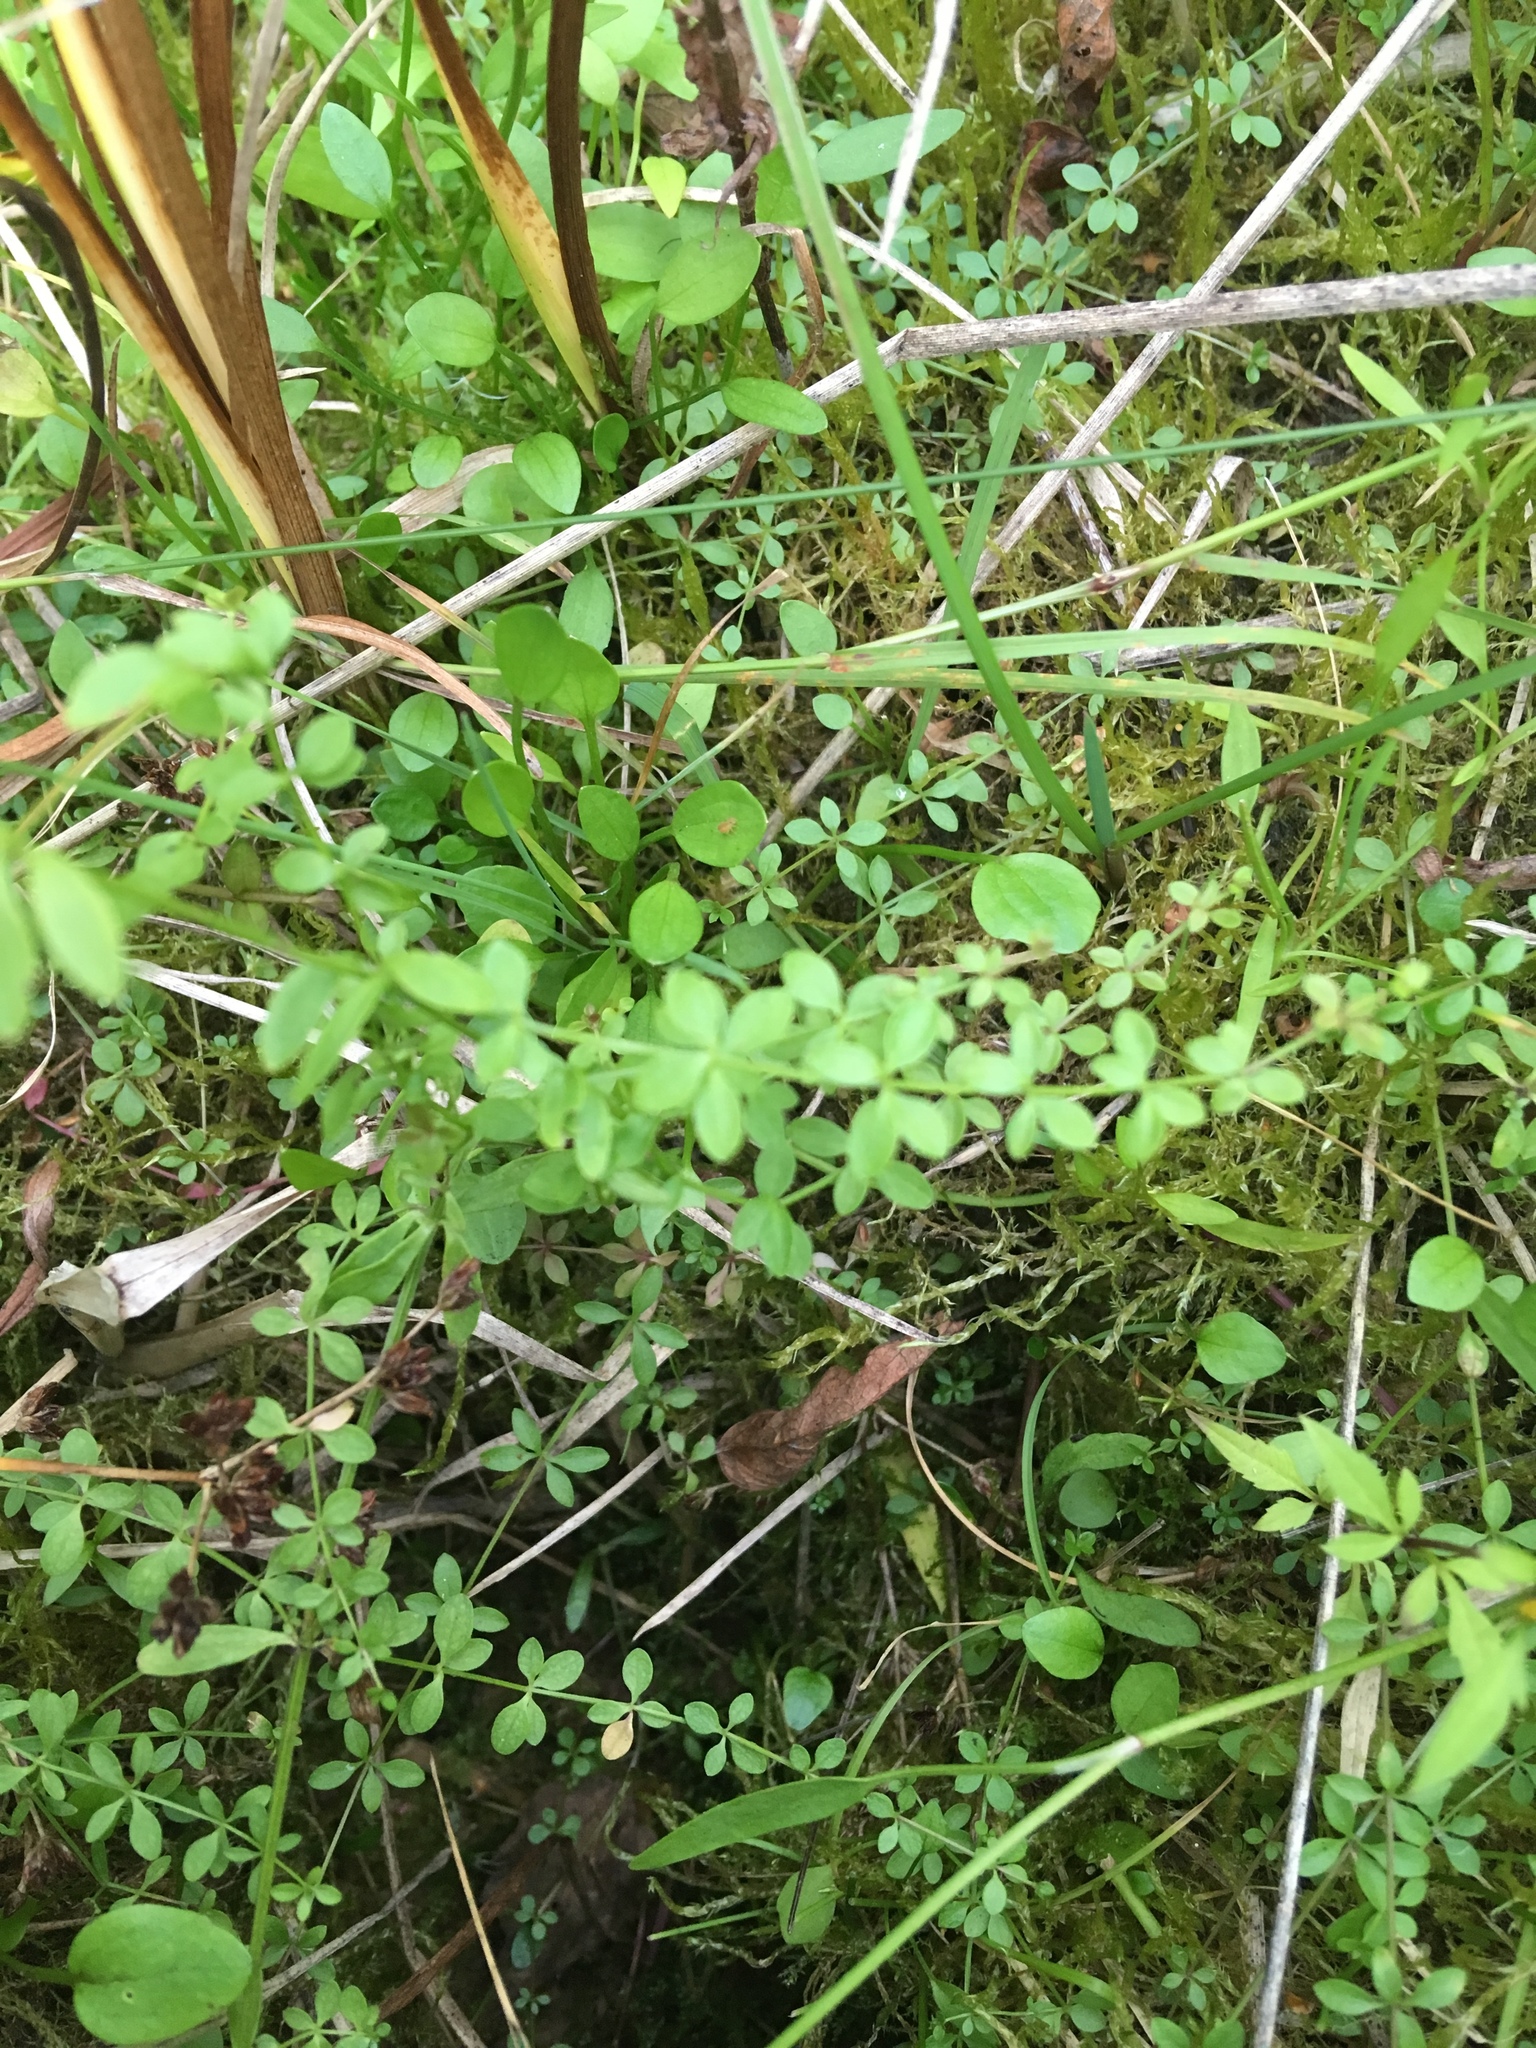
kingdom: Plantae
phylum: Tracheophyta
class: Magnoliopsida
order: Gentianales
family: Rubiaceae
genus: Galium
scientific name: Galium palustre
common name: Common marsh-bedstraw
